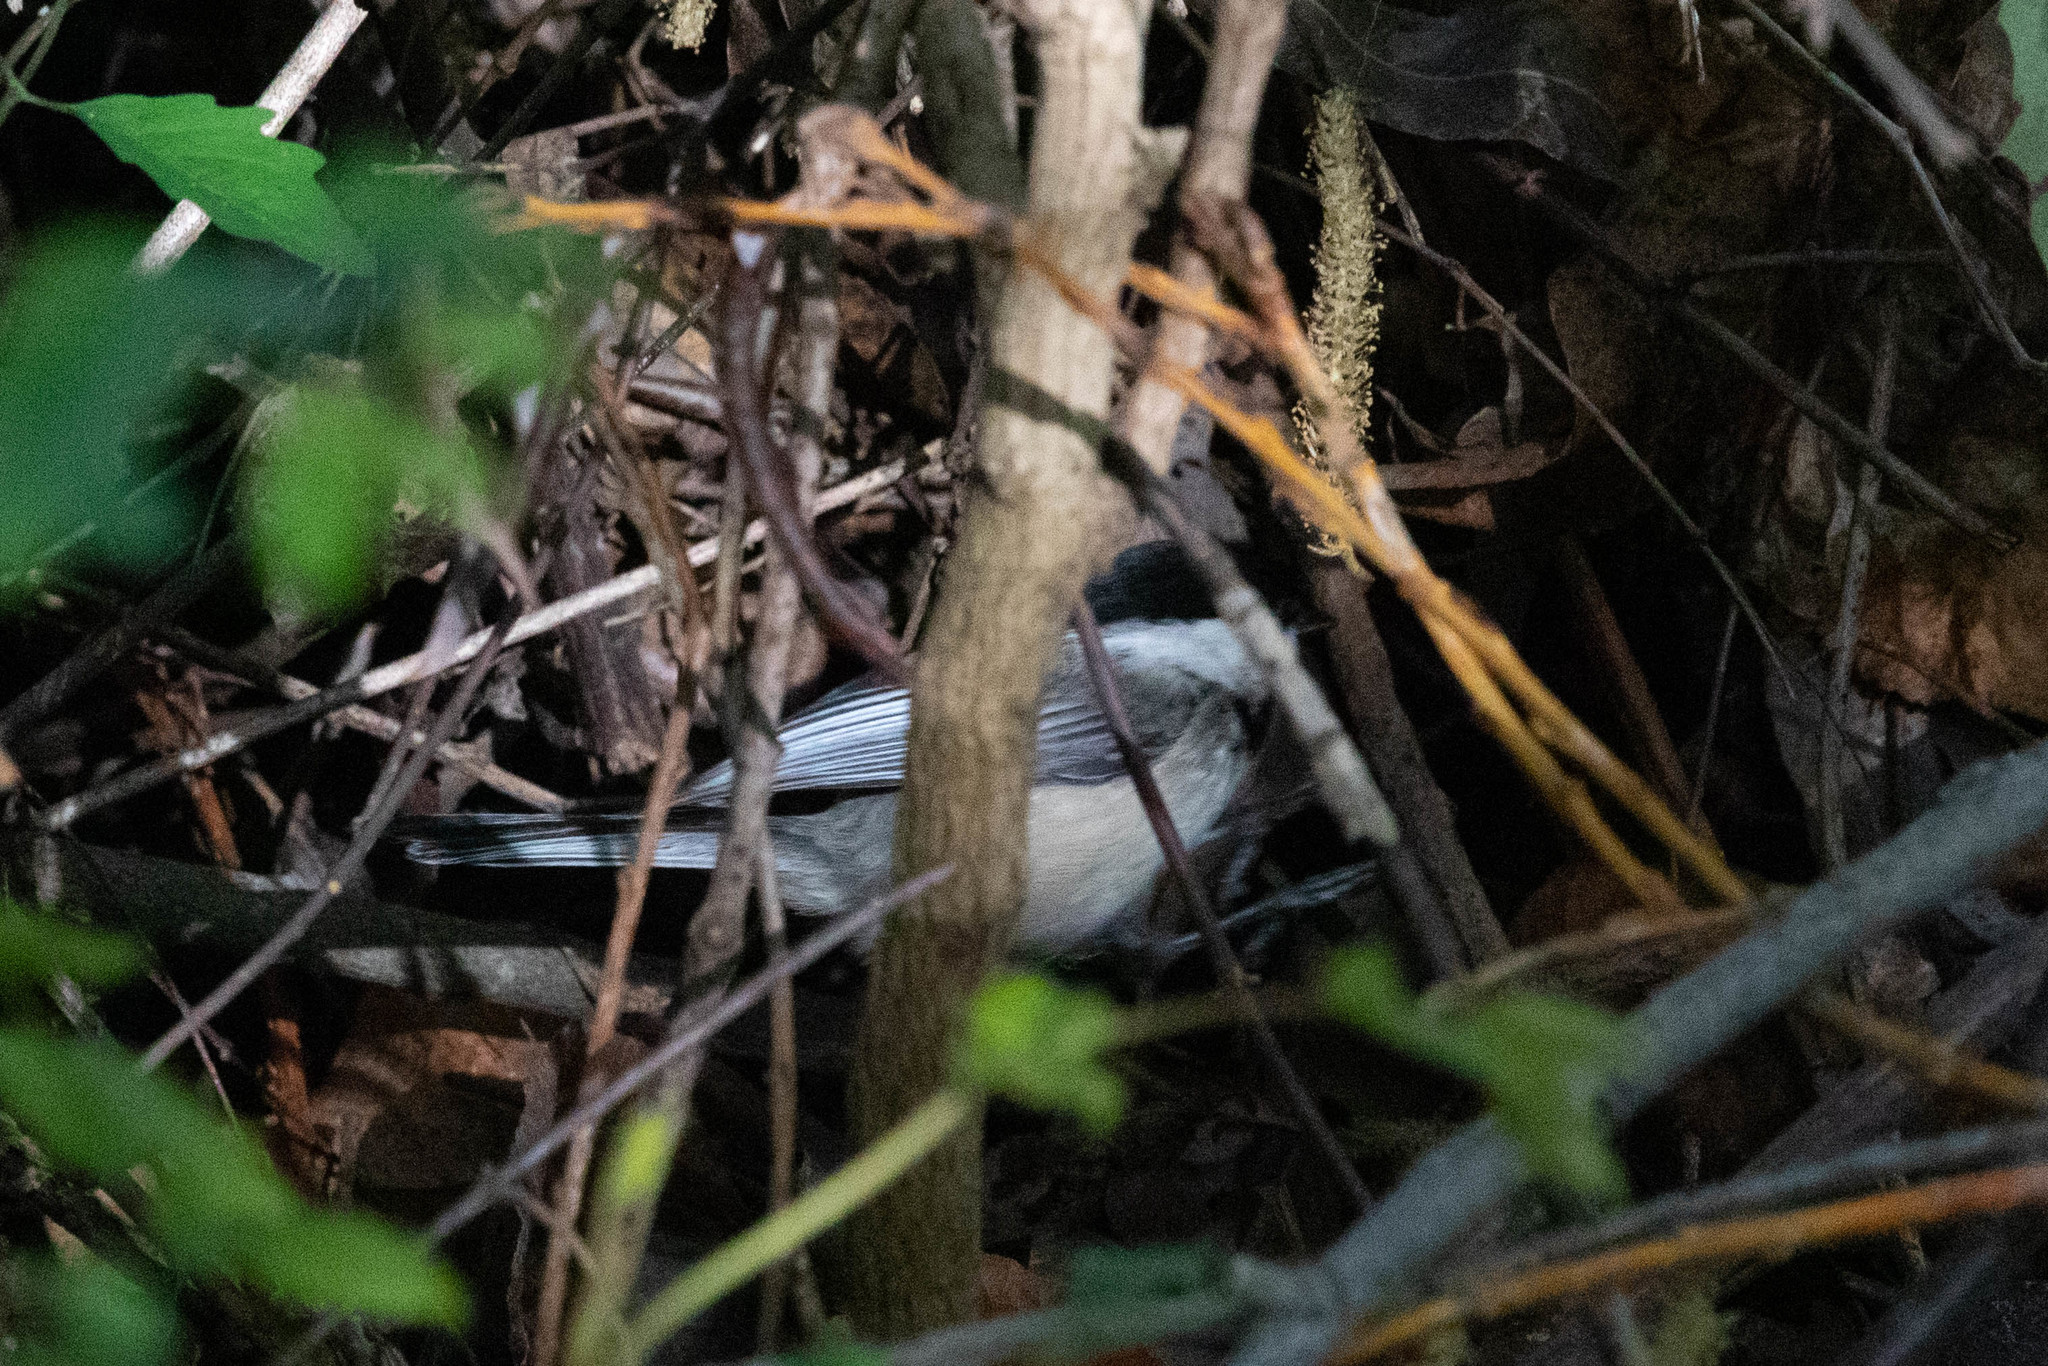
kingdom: Animalia
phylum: Chordata
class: Aves
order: Passeriformes
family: Paridae
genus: Poecile
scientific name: Poecile atricapillus
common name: Black-capped chickadee
